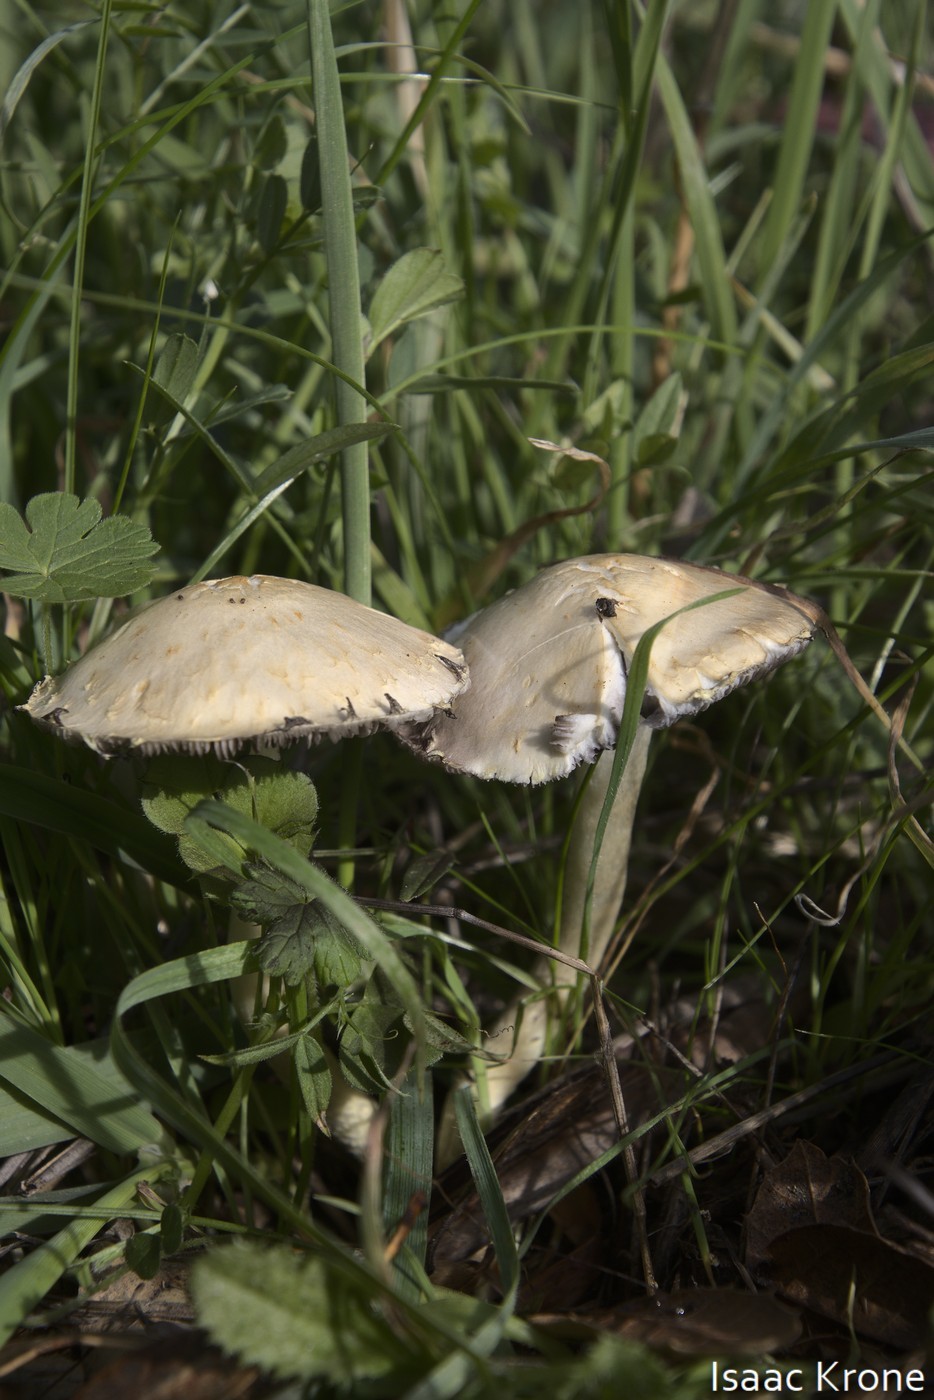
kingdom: Fungi
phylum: Basidiomycota
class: Agaricomycetes
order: Agaricales
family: Strophariaceae
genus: Leratiomyces
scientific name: Leratiomyces percevalii
